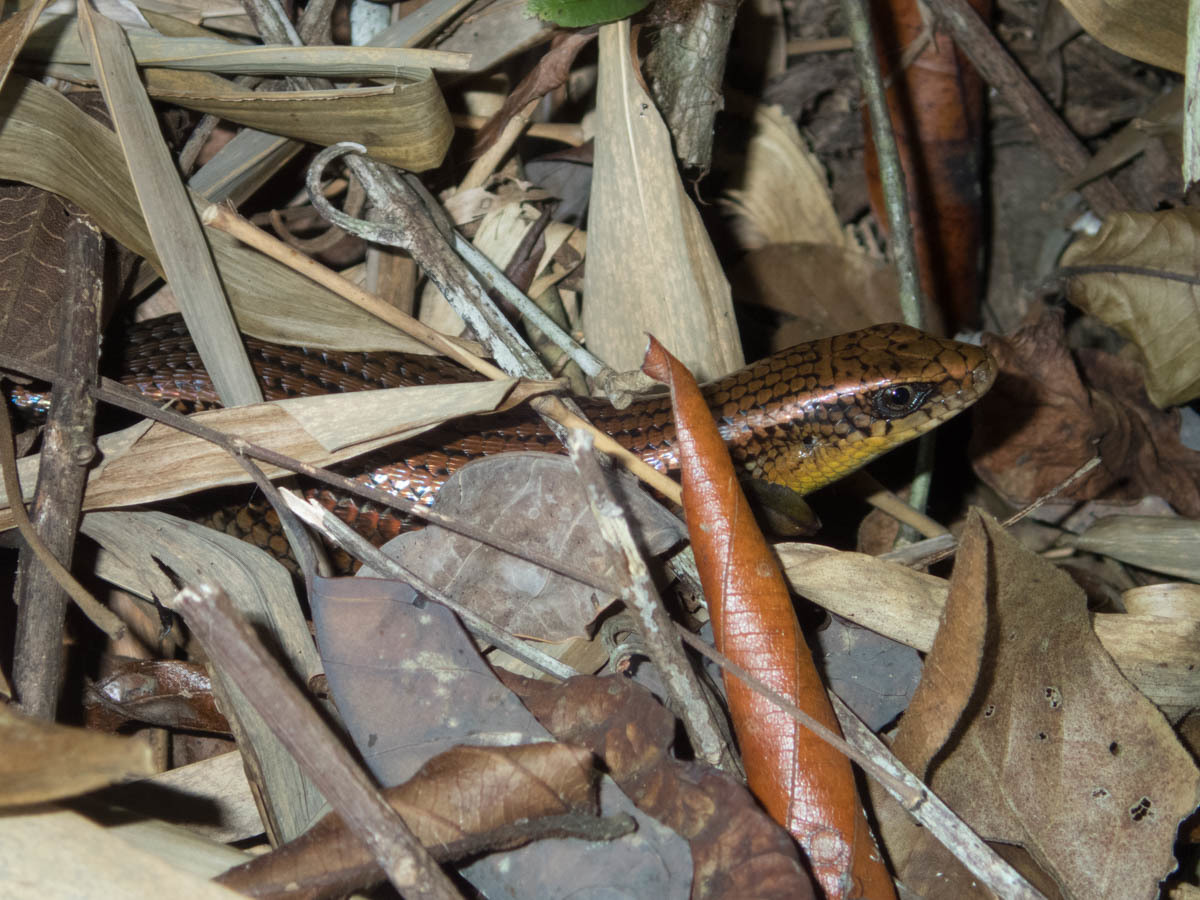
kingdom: Animalia
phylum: Chordata
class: Squamata
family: Scincidae
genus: Eutropis
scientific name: Eutropis multifasciata
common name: Common mabuya
